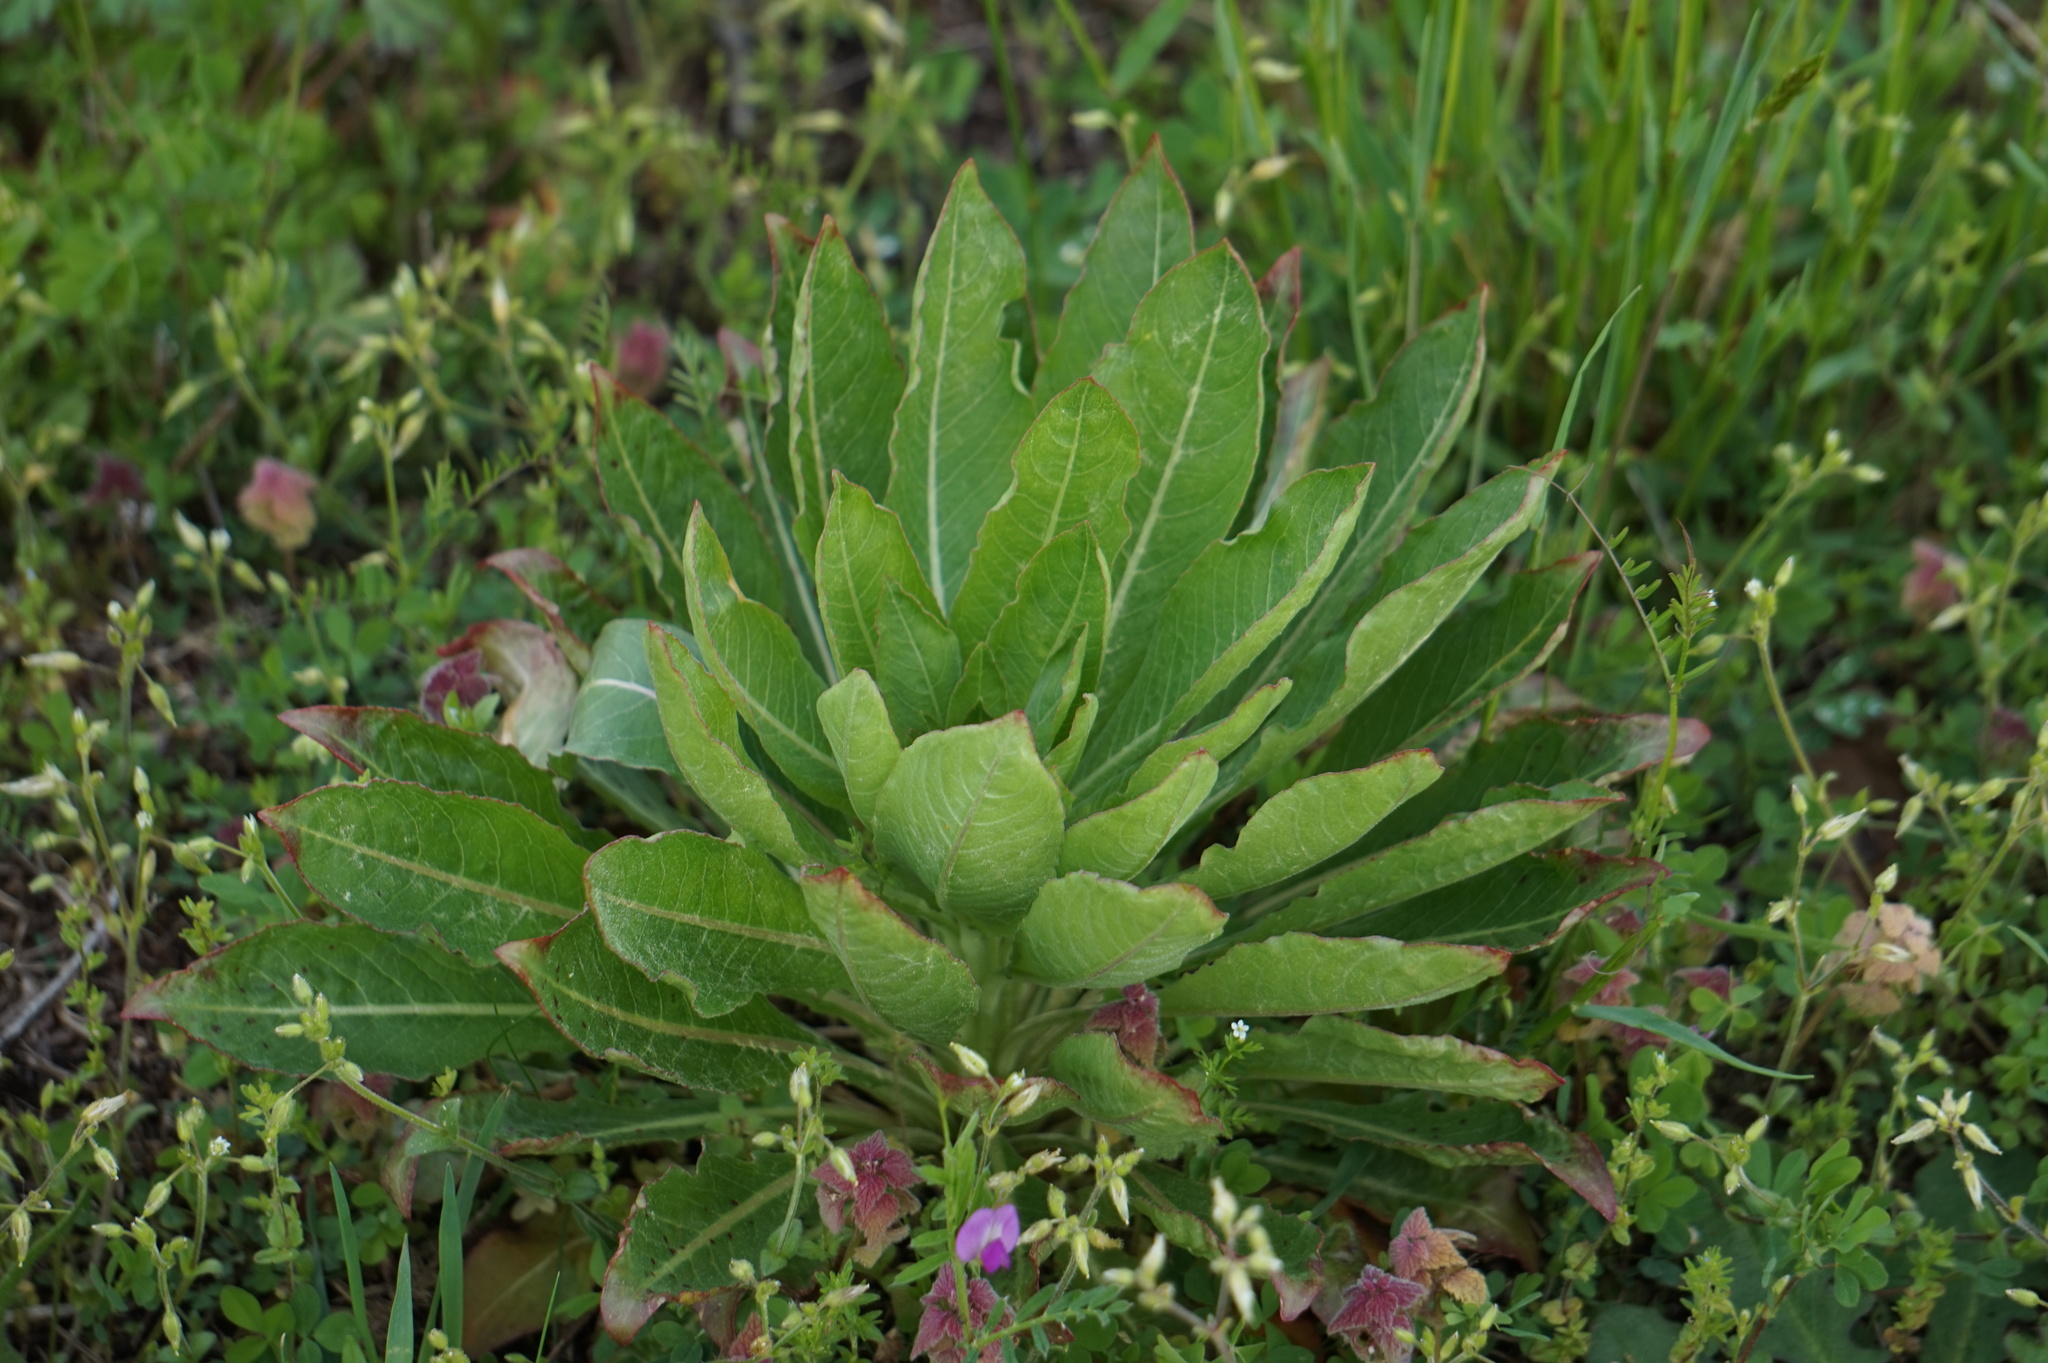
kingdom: Plantae
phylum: Tracheophyta
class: Magnoliopsida
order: Myrtales
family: Onagraceae
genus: Oenothera
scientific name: Oenothera biennis
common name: Common evening-primrose
